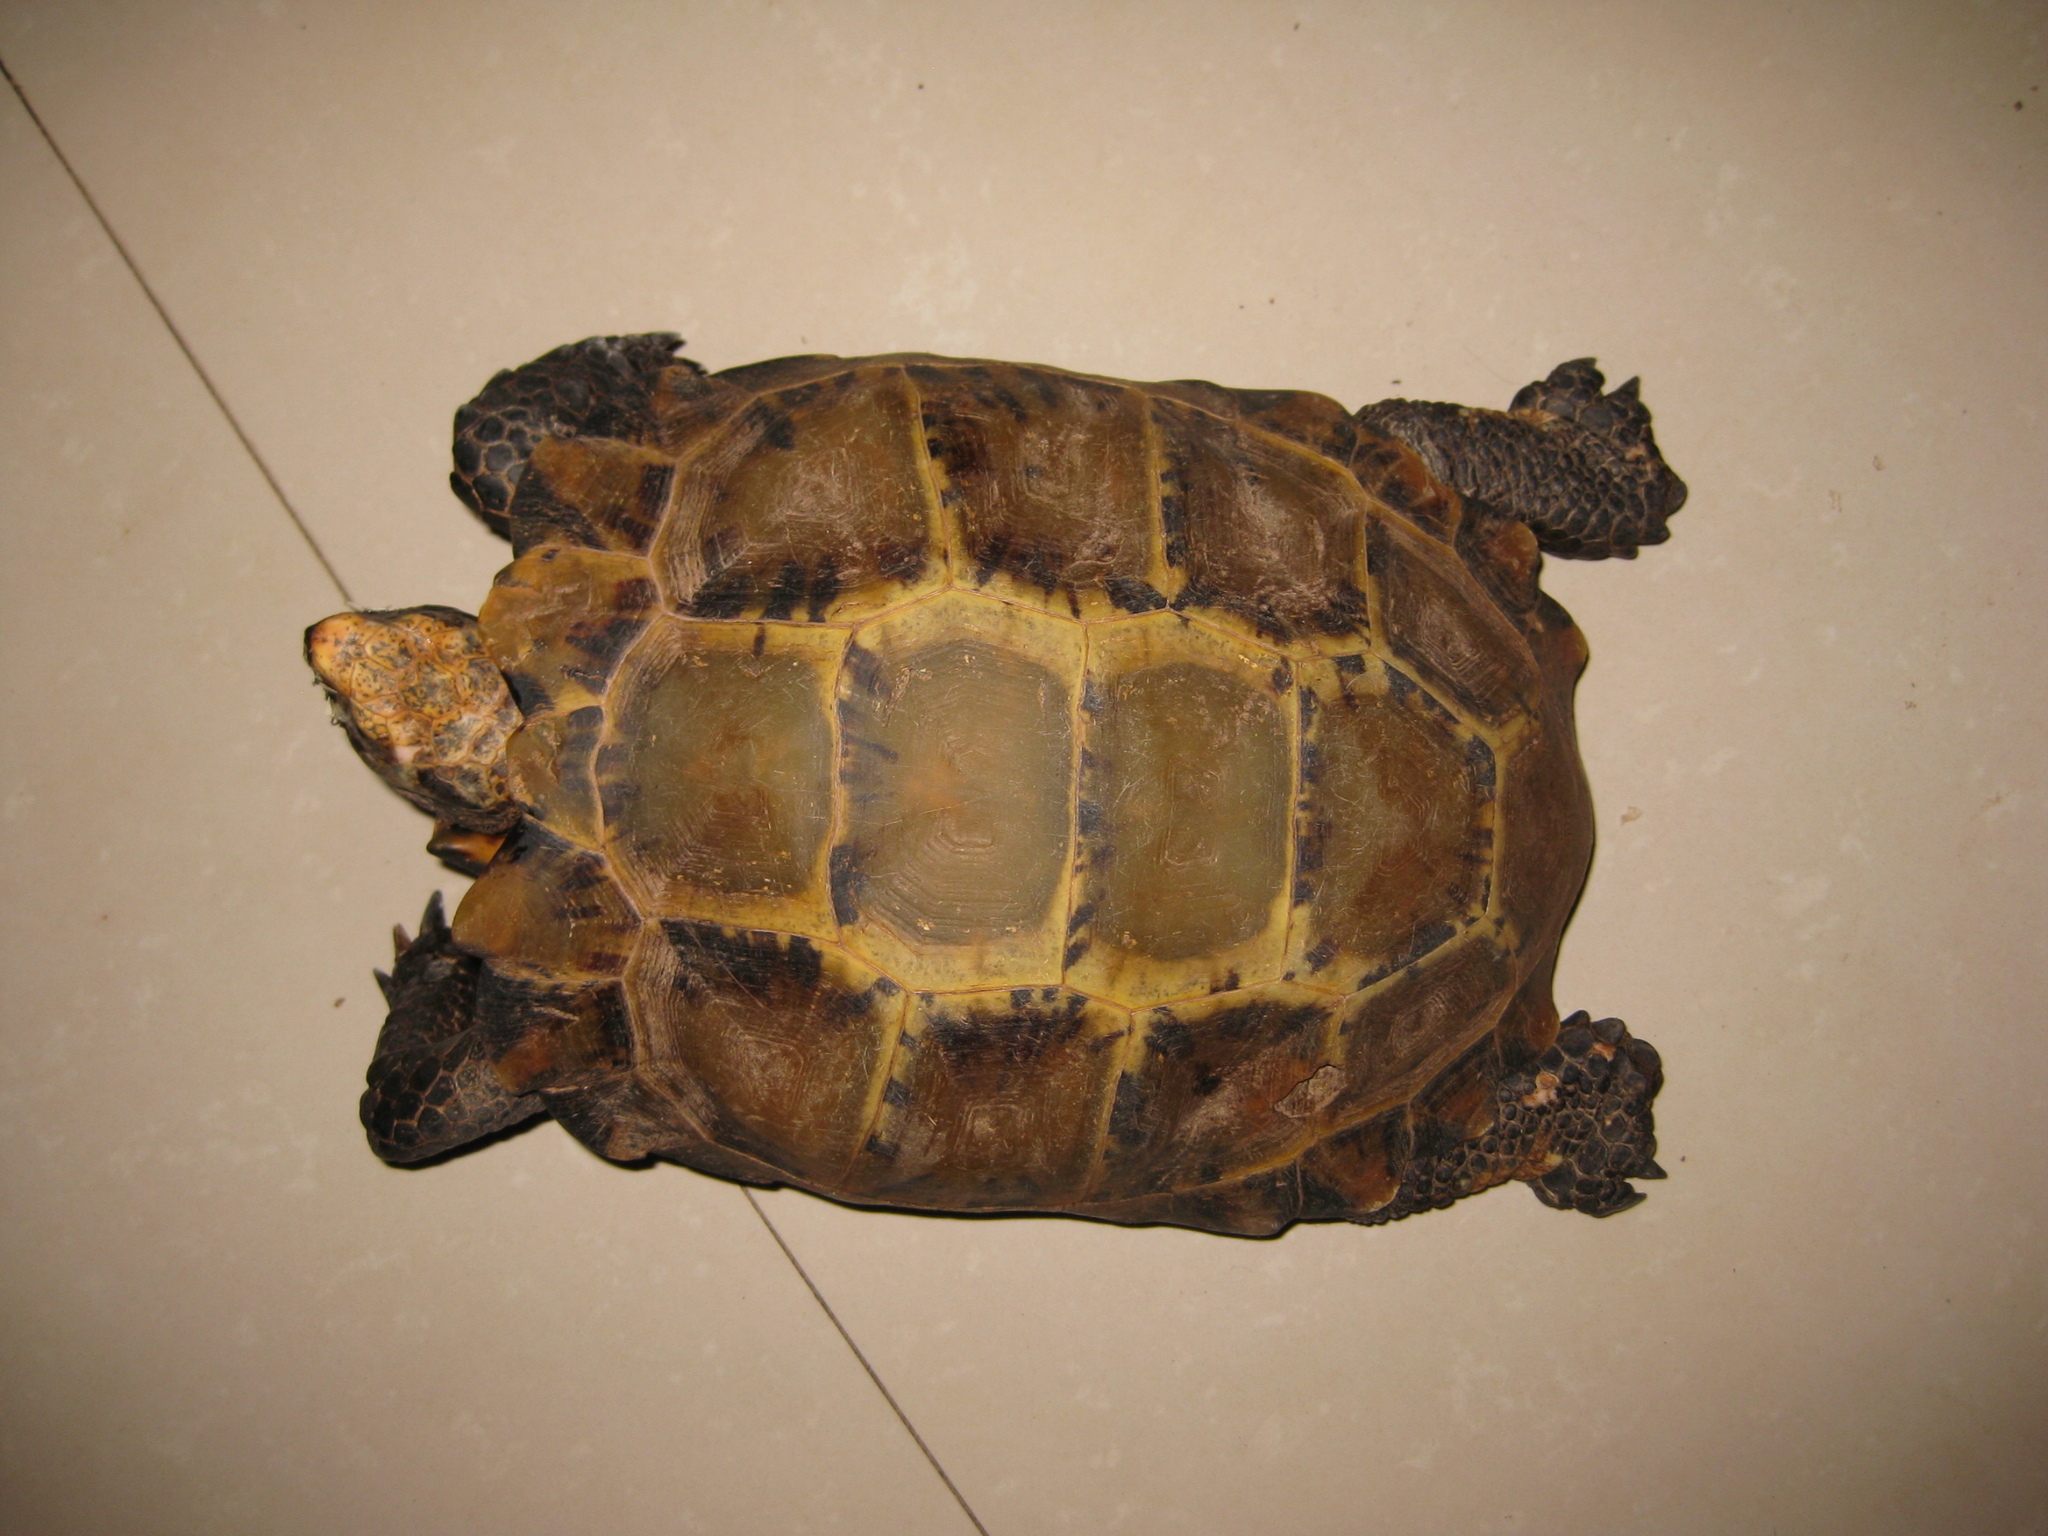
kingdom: Animalia
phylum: Chordata
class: Testudines
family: Testudinidae
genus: Manouria
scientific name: Manouria impressa
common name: Impressed tortoise
